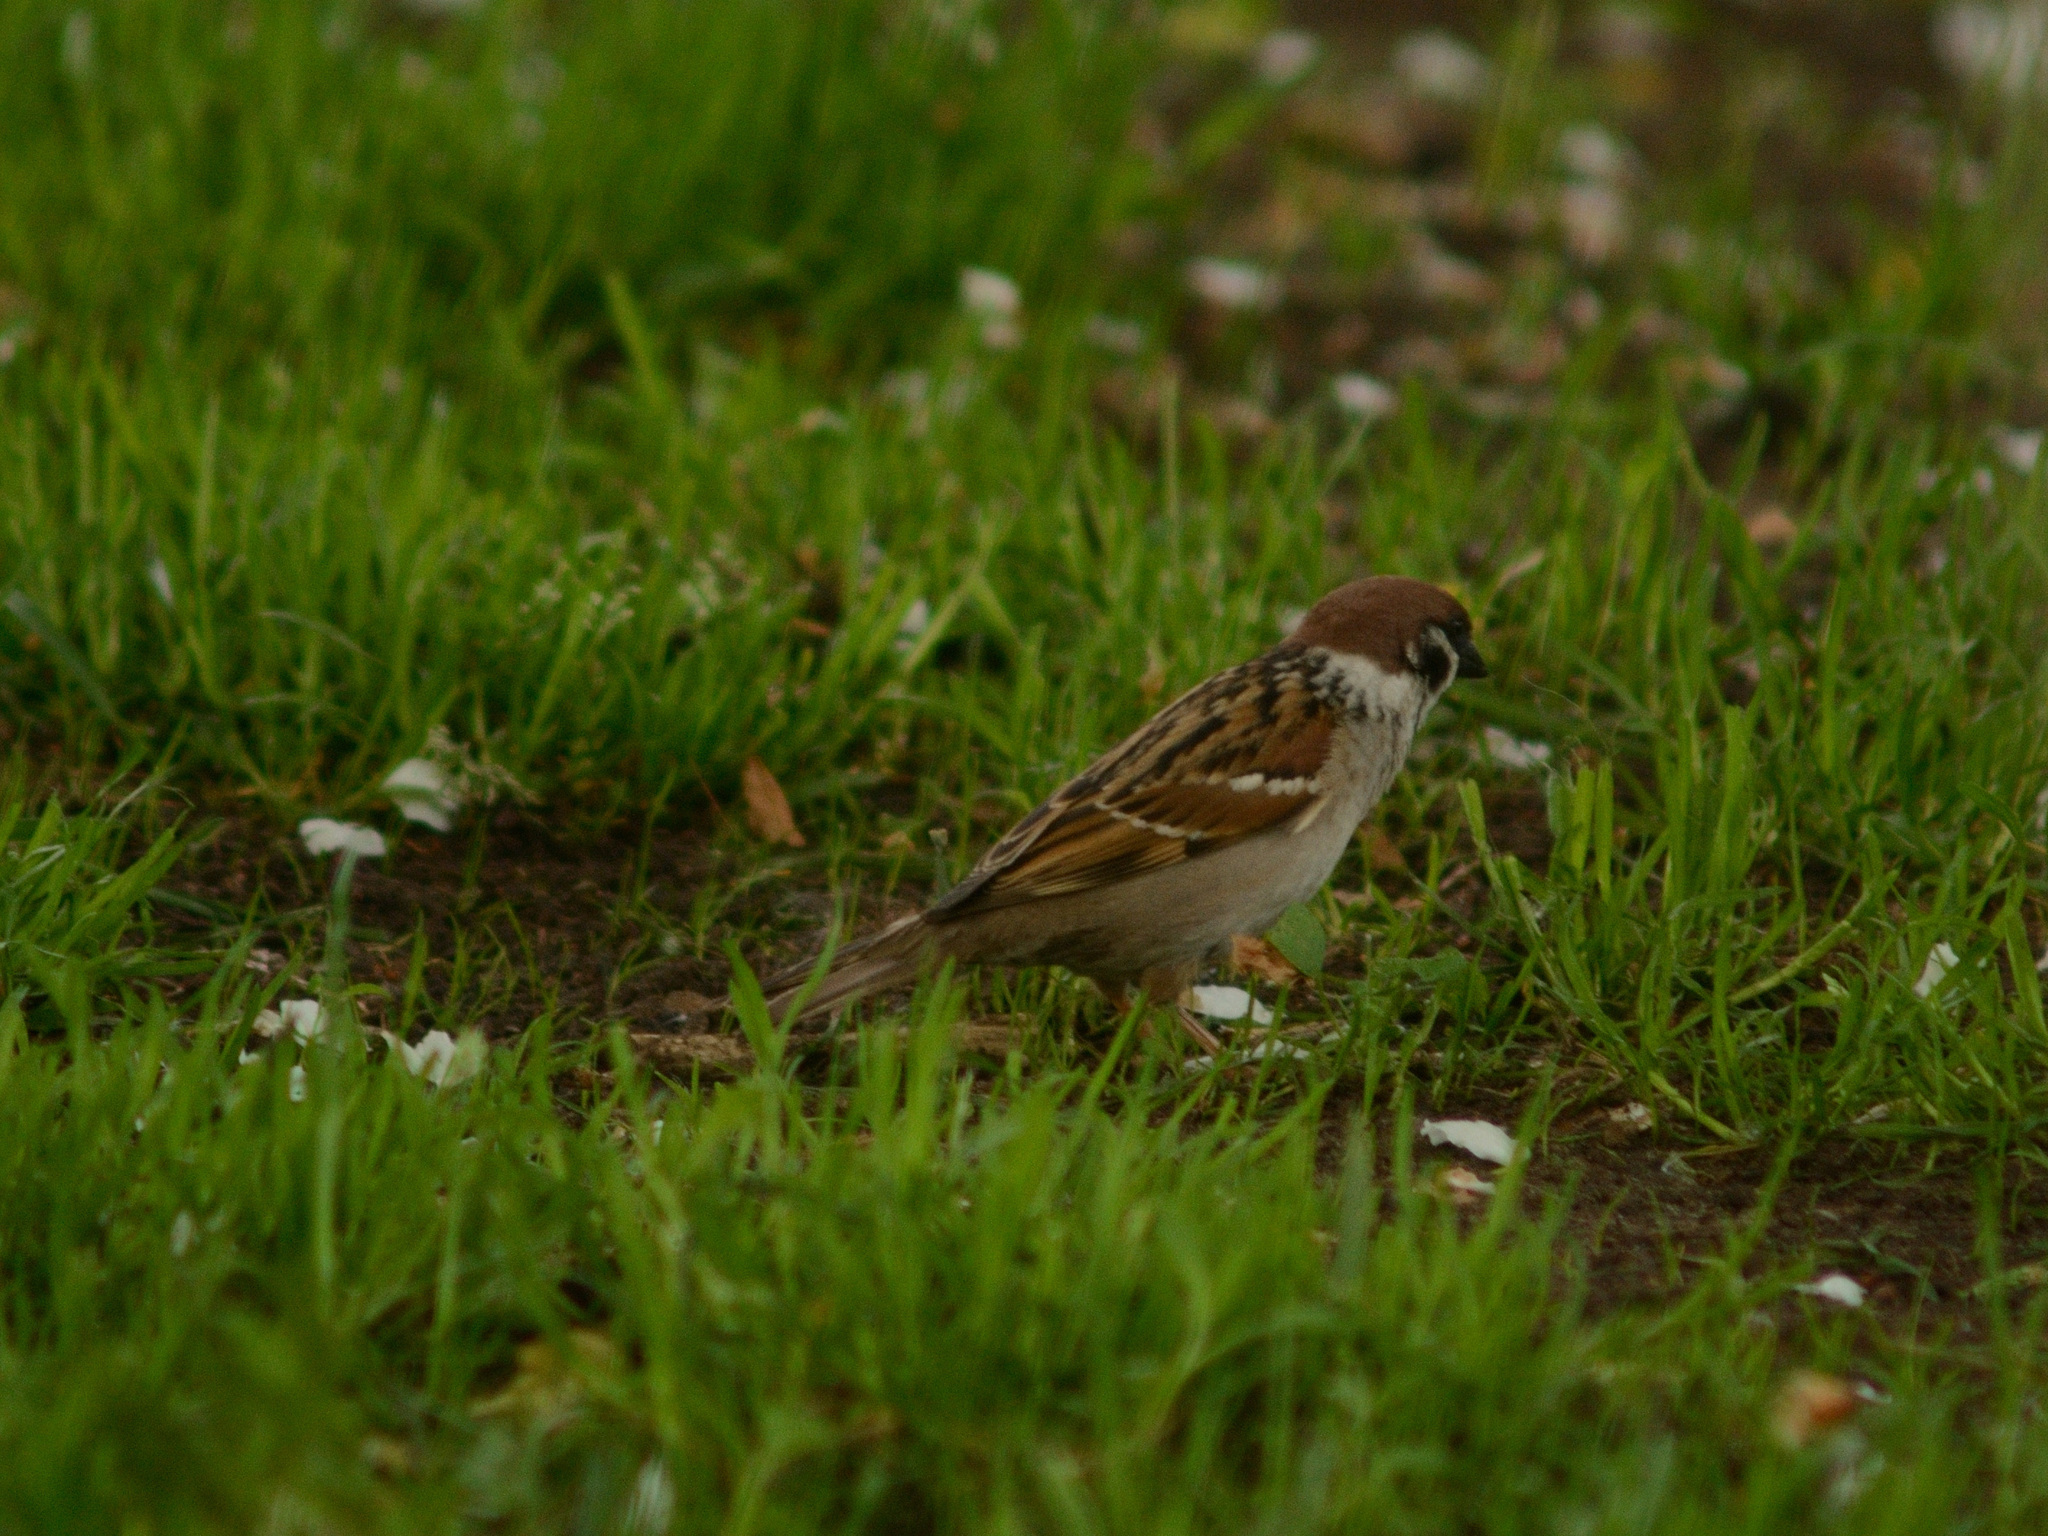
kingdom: Animalia
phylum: Chordata
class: Aves
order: Passeriformes
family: Passeridae
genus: Passer
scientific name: Passer montanus
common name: Eurasian tree sparrow
